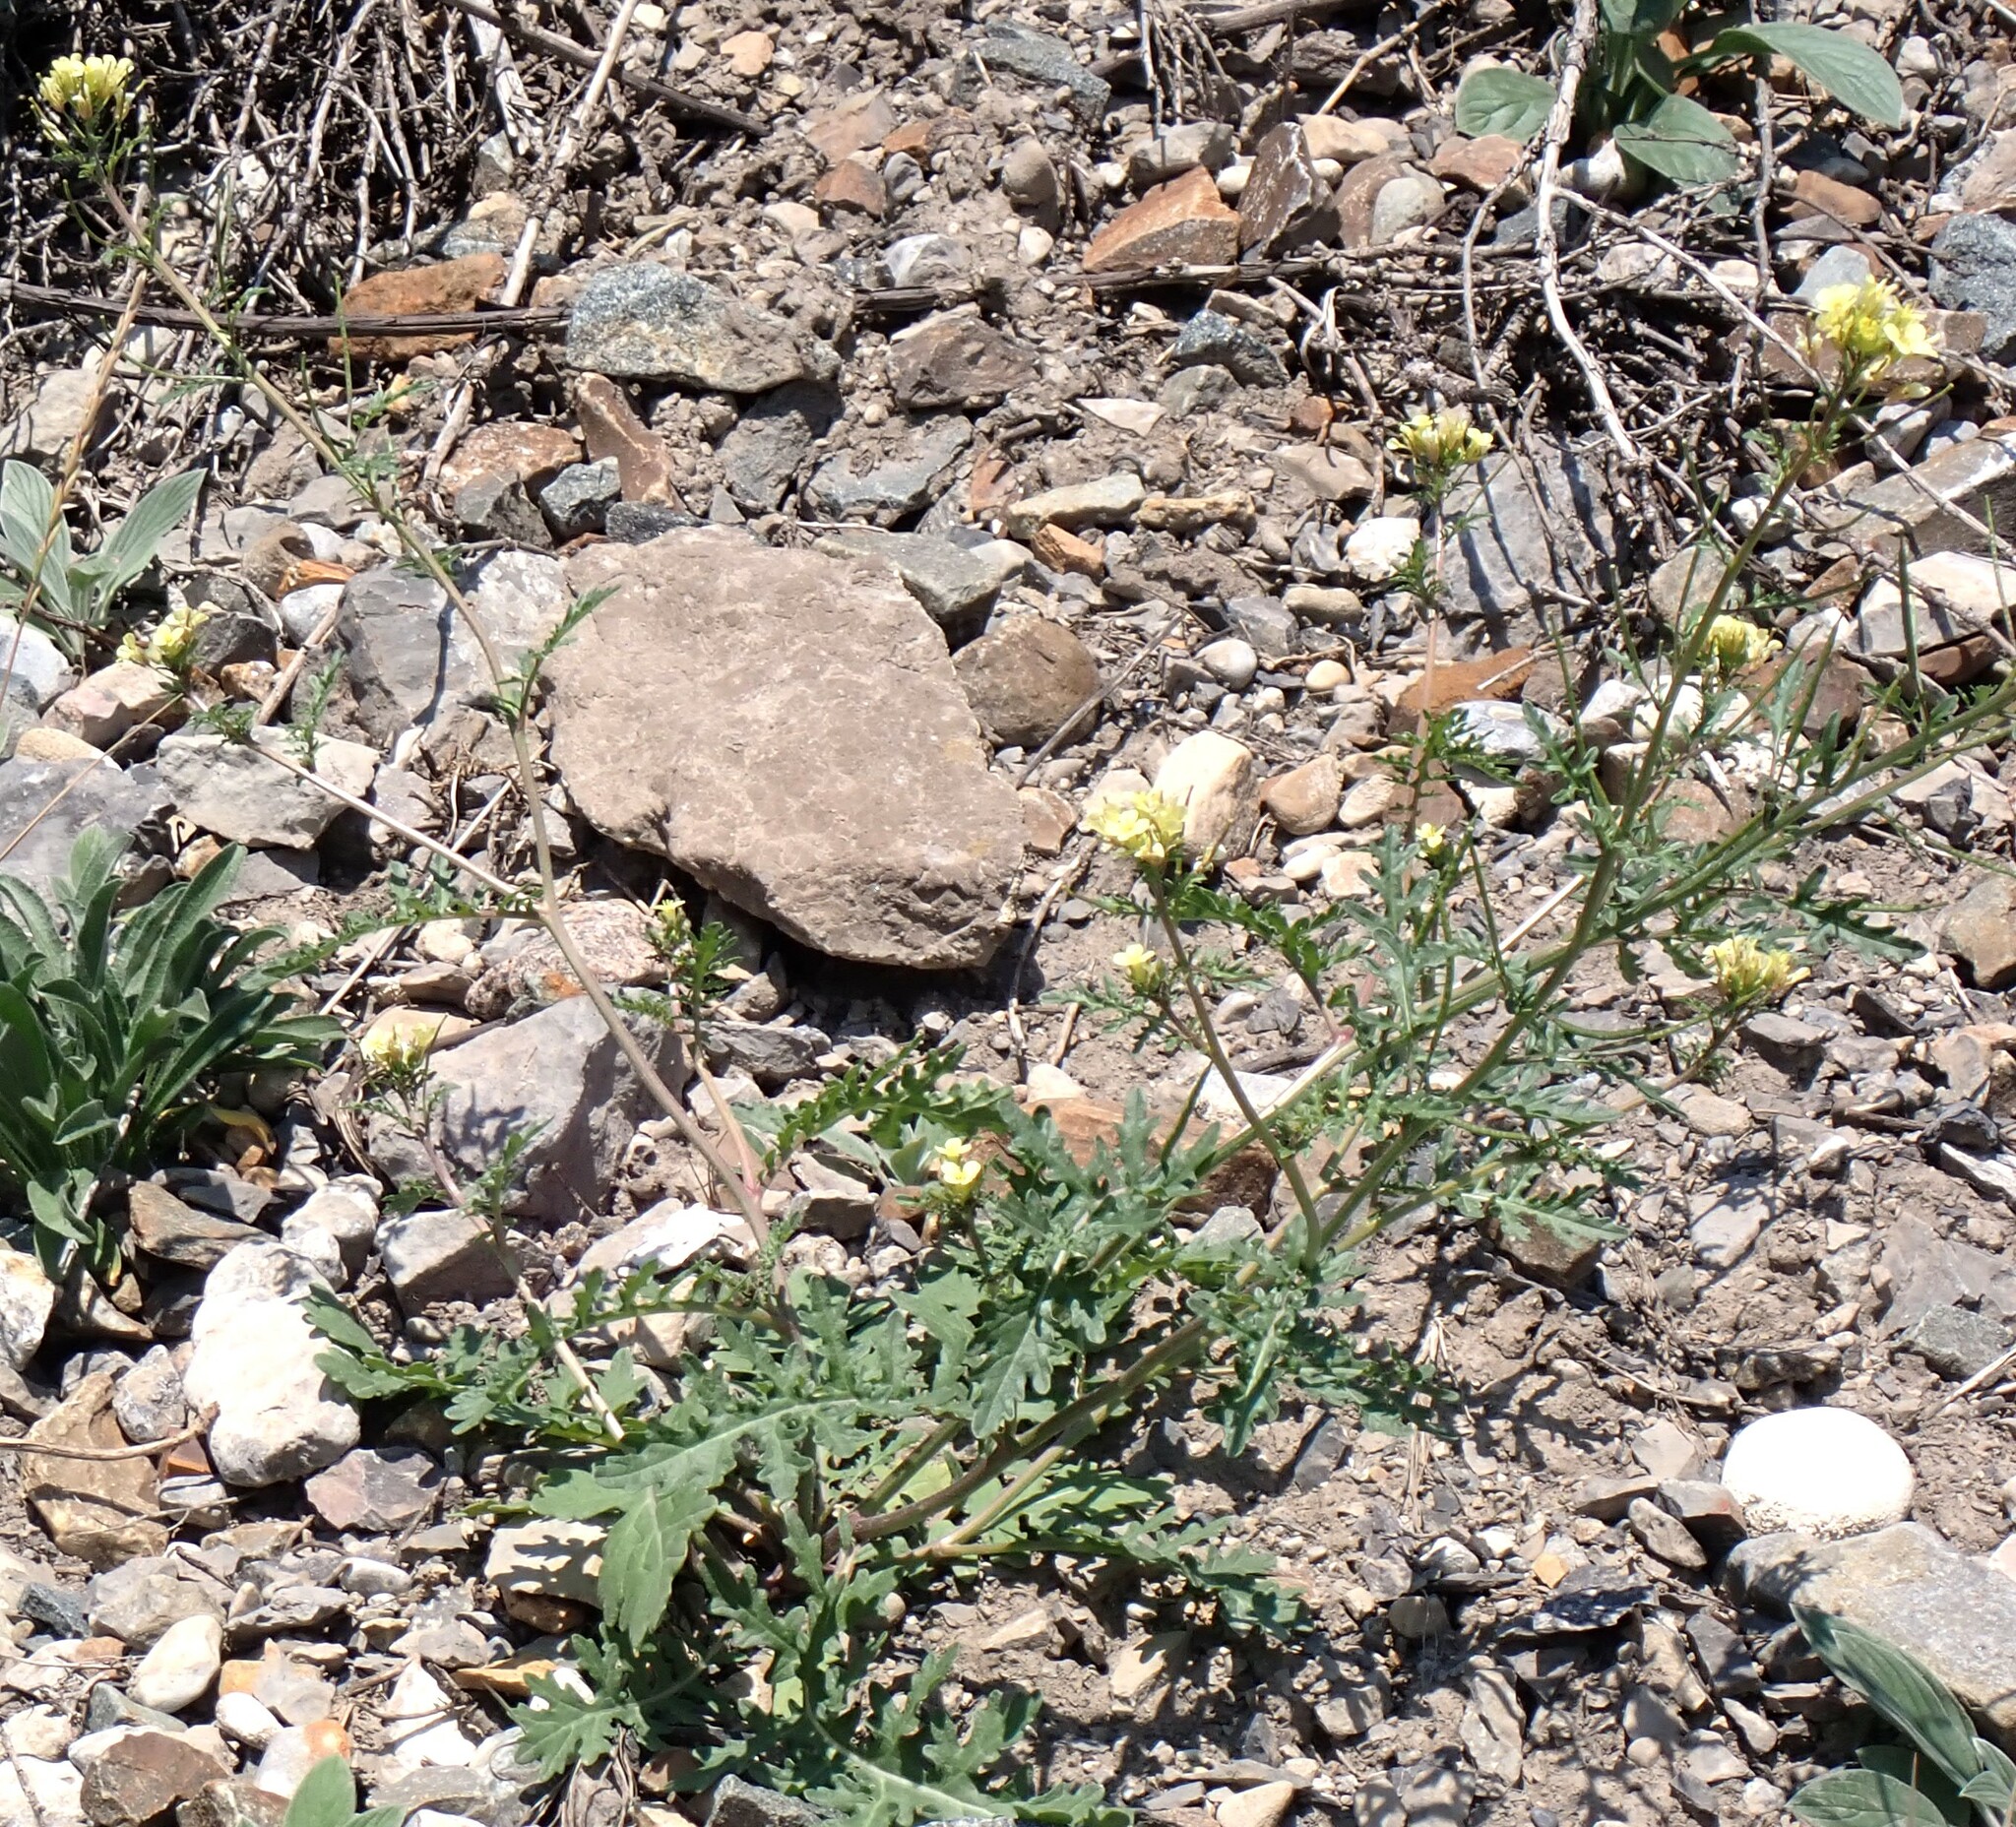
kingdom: Plantae
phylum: Tracheophyta
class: Magnoliopsida
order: Brassicales
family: Brassicaceae
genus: Erucastrum
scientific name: Erucastrum gallicum
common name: Hairy rocket
